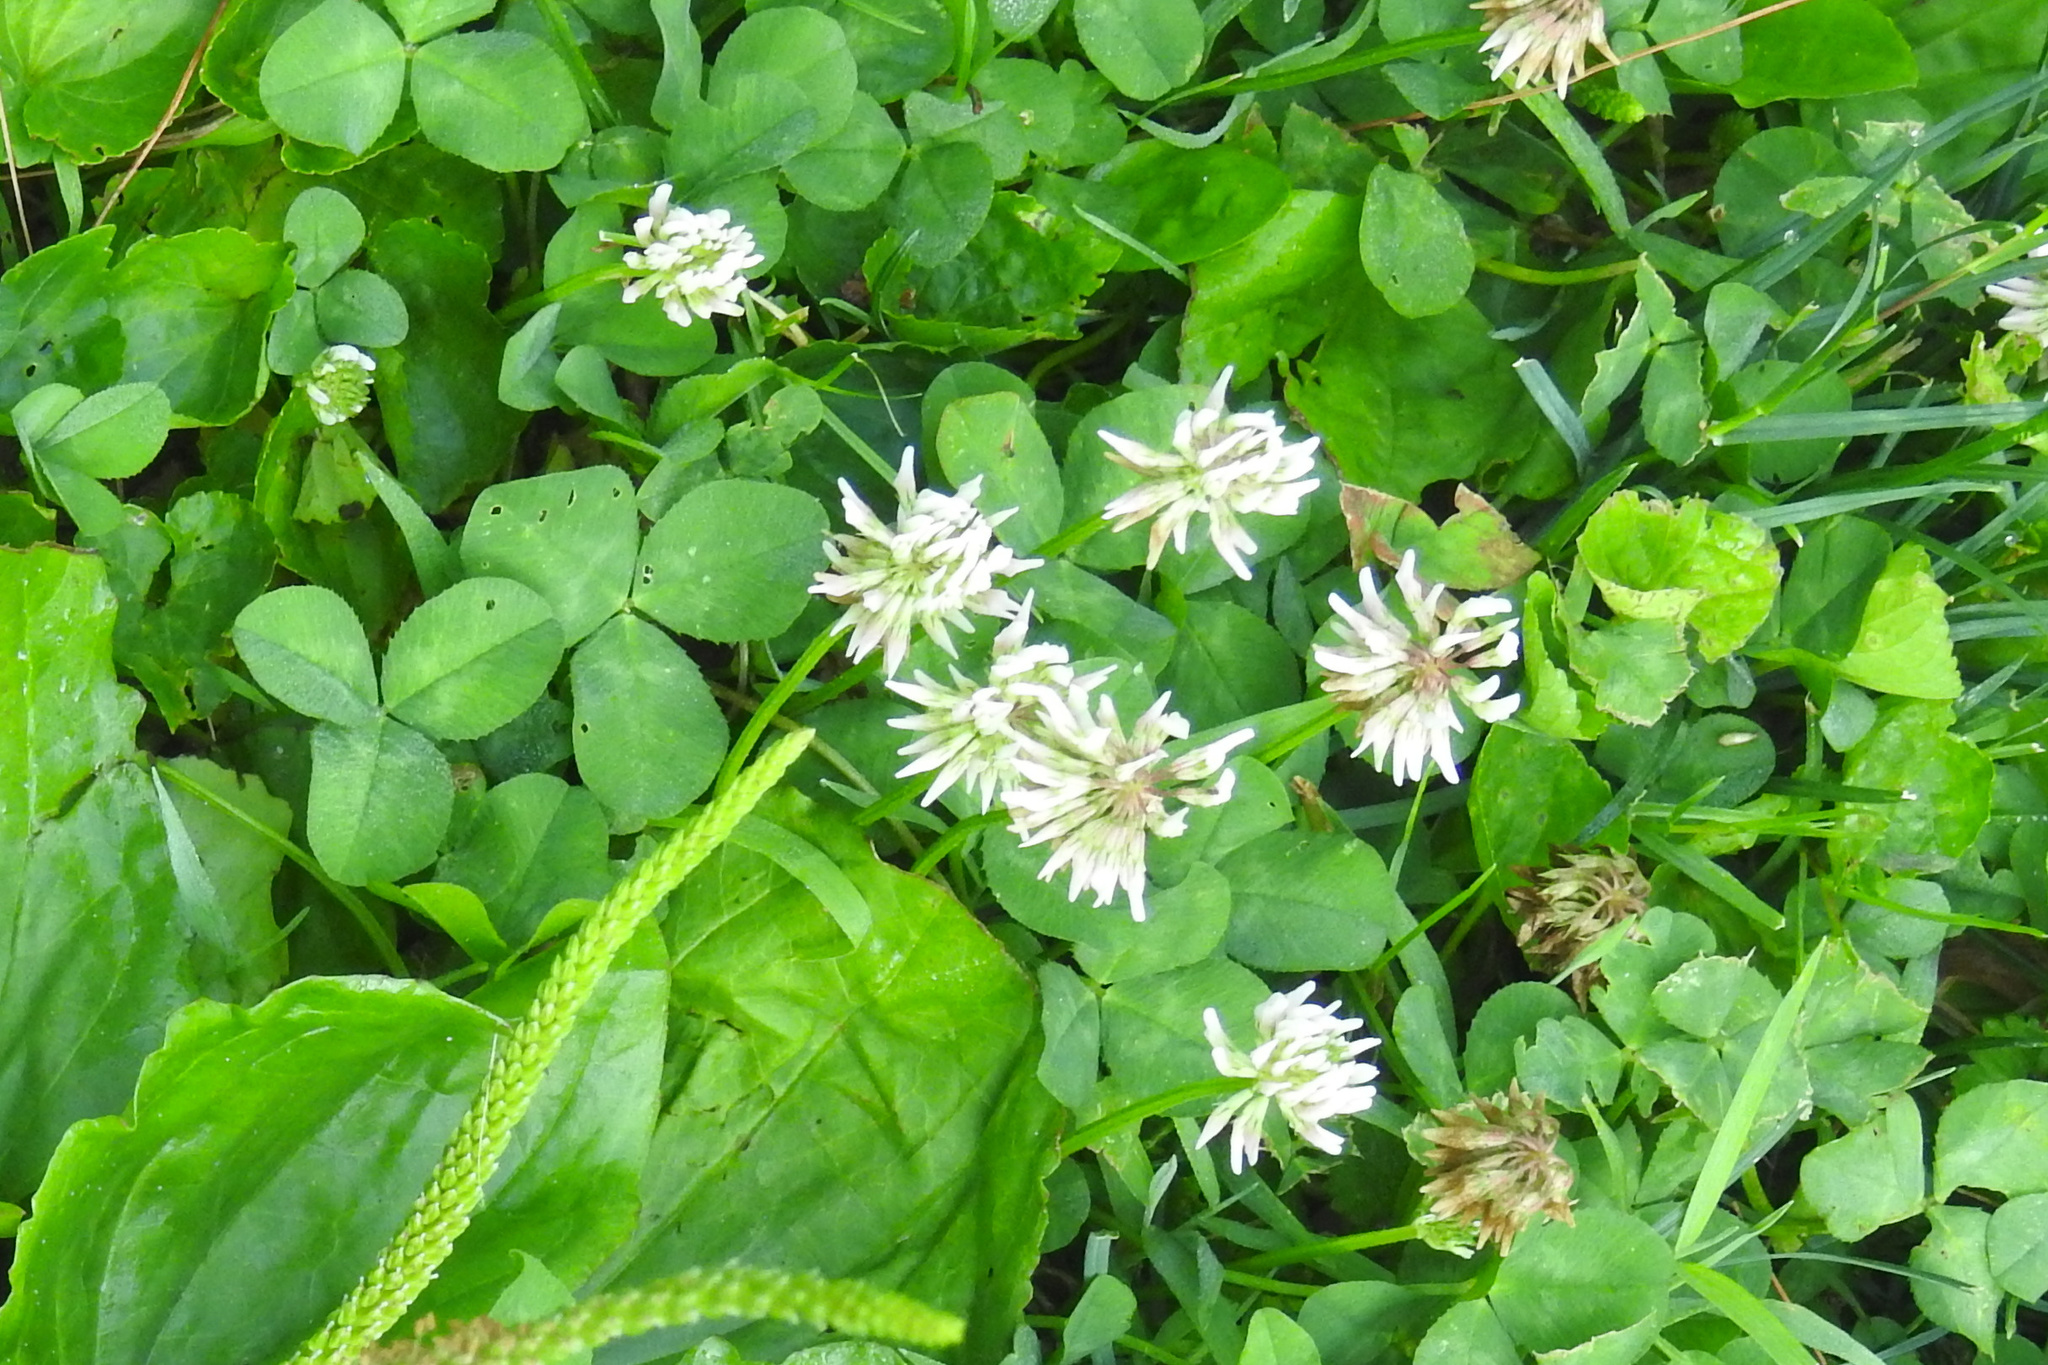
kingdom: Plantae
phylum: Tracheophyta
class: Magnoliopsida
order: Fabales
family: Fabaceae
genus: Trifolium
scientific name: Trifolium repens
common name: White clover
